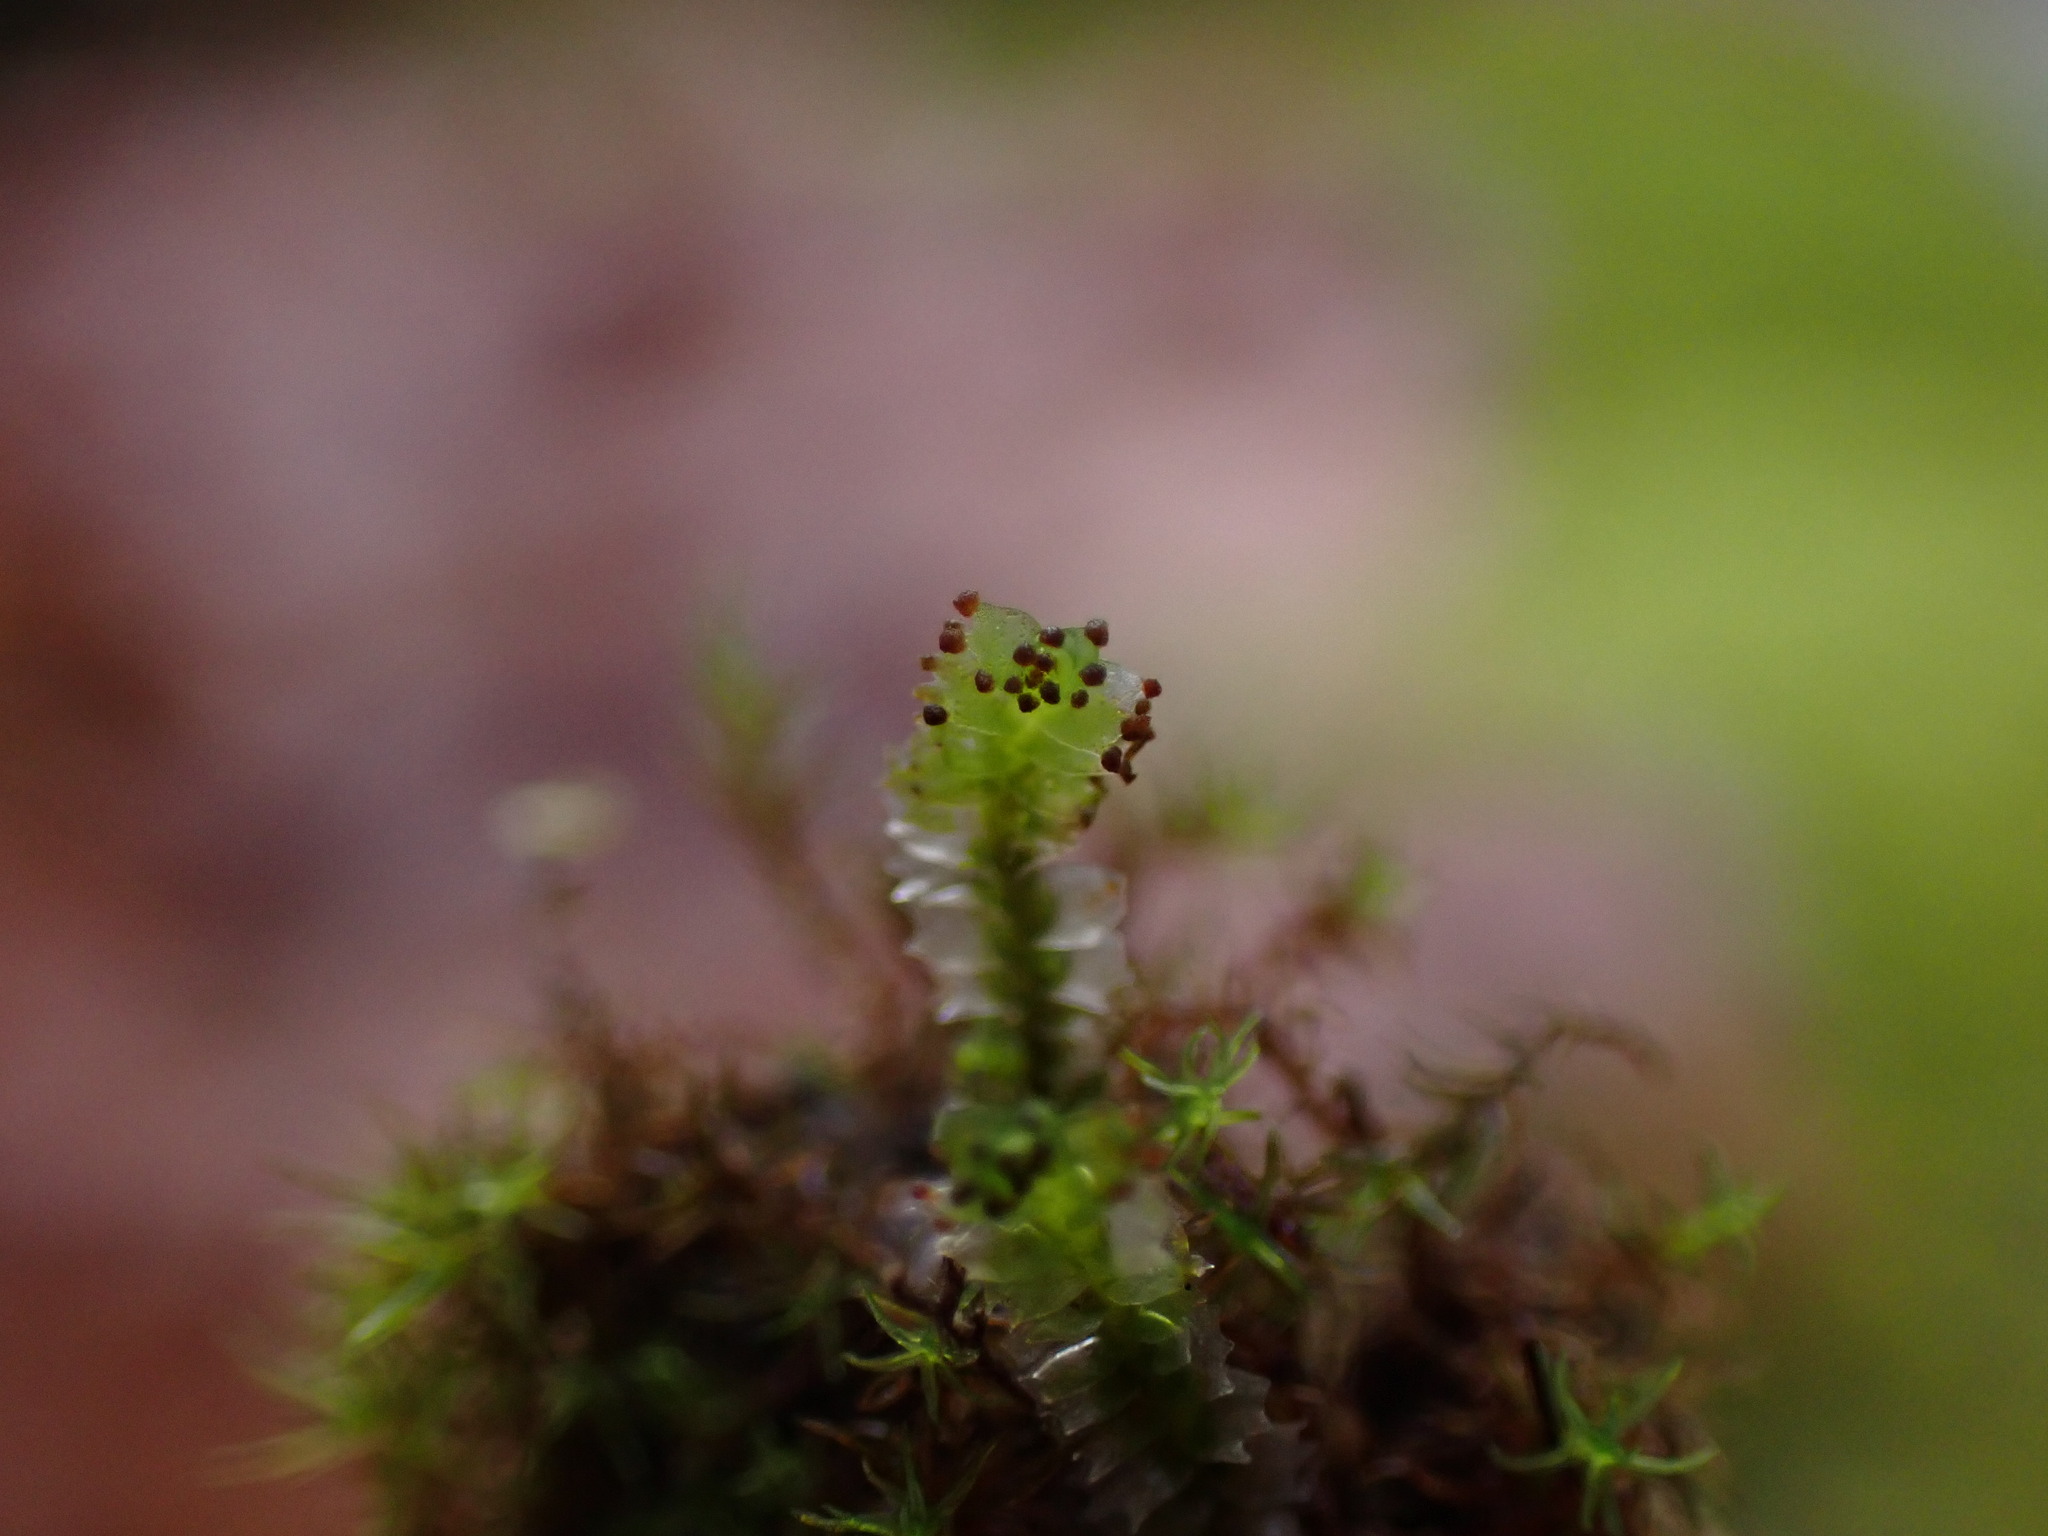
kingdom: Plantae
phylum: Marchantiophyta
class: Jungermanniopsida
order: Jungermanniales
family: Anastrophyllaceae
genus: Barbilophozia
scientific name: Barbilophozia hatcheri
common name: Hatcher s pawwort
